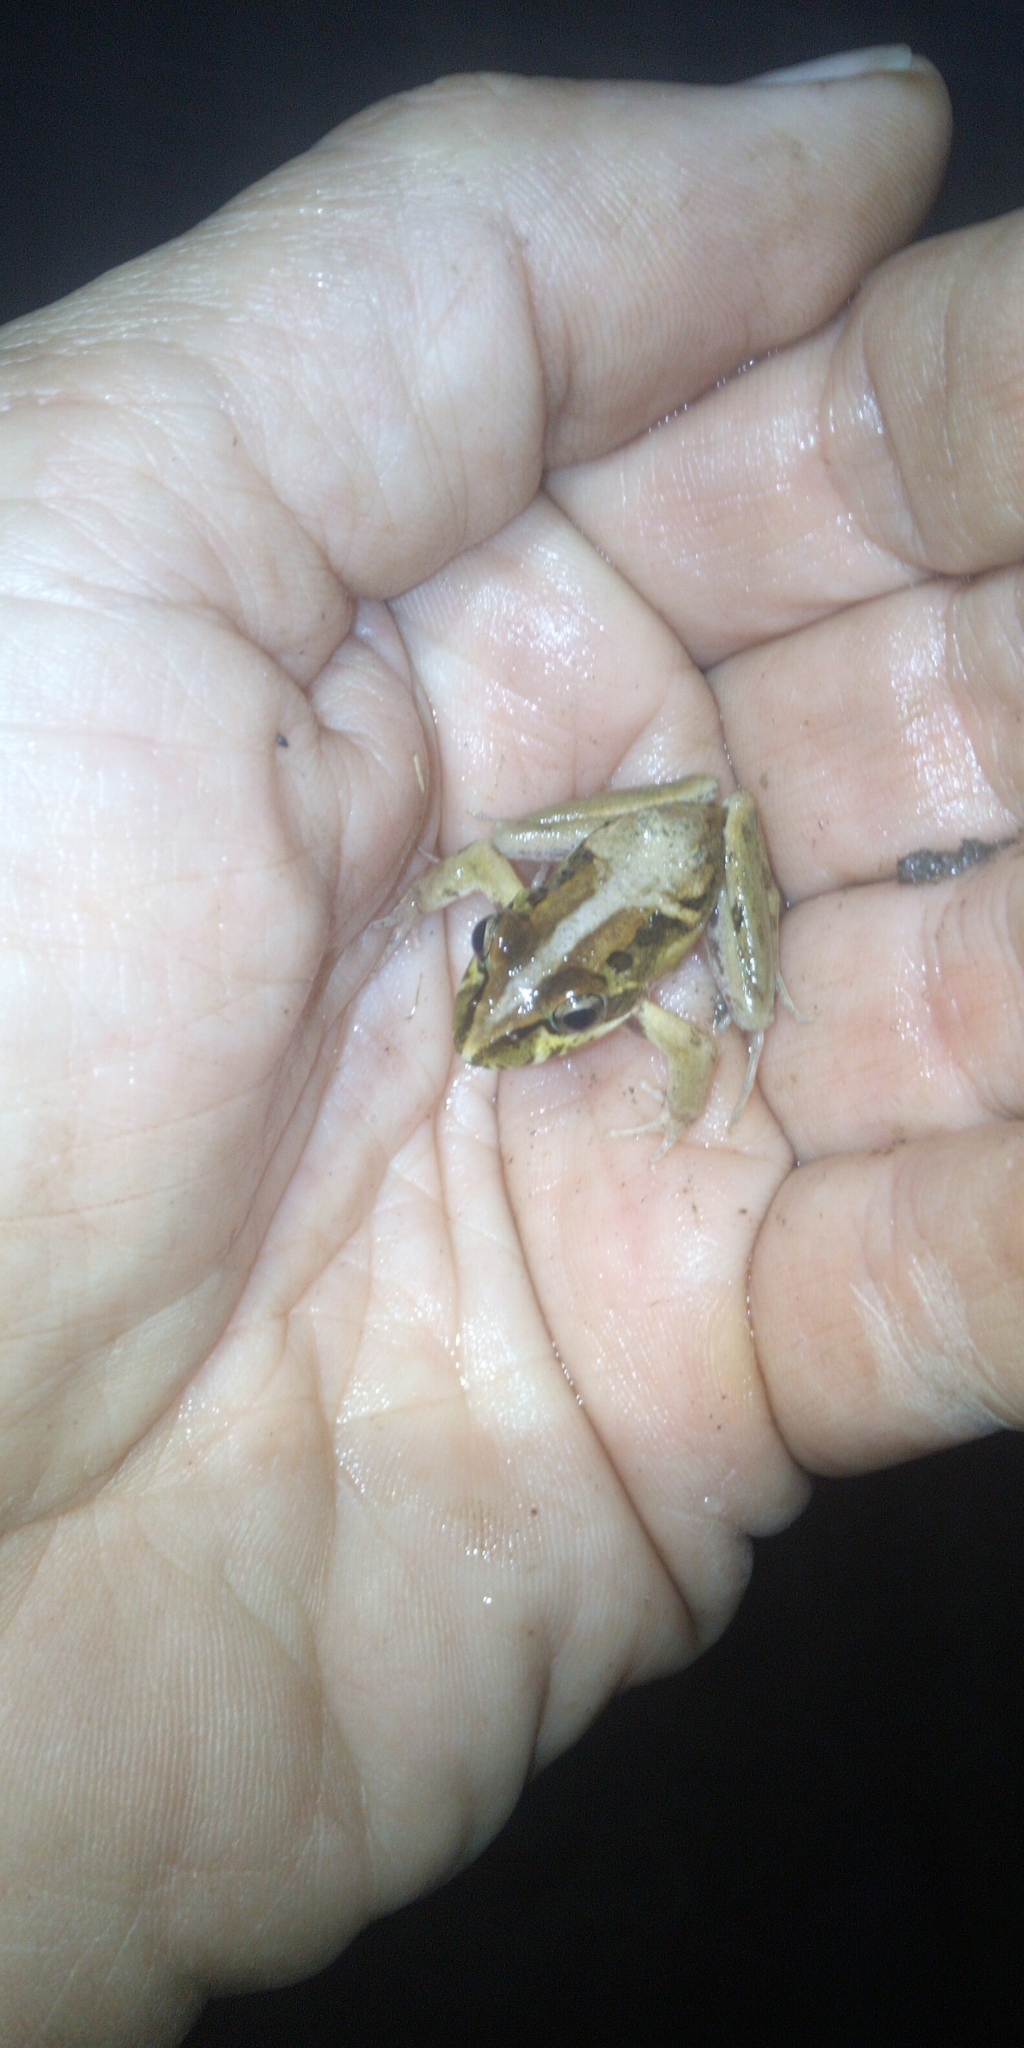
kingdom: Animalia
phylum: Chordata
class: Amphibia
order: Anura
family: Pyxicephalidae
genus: Strongylopus
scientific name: Strongylopus grayii
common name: Gray's stream frog
